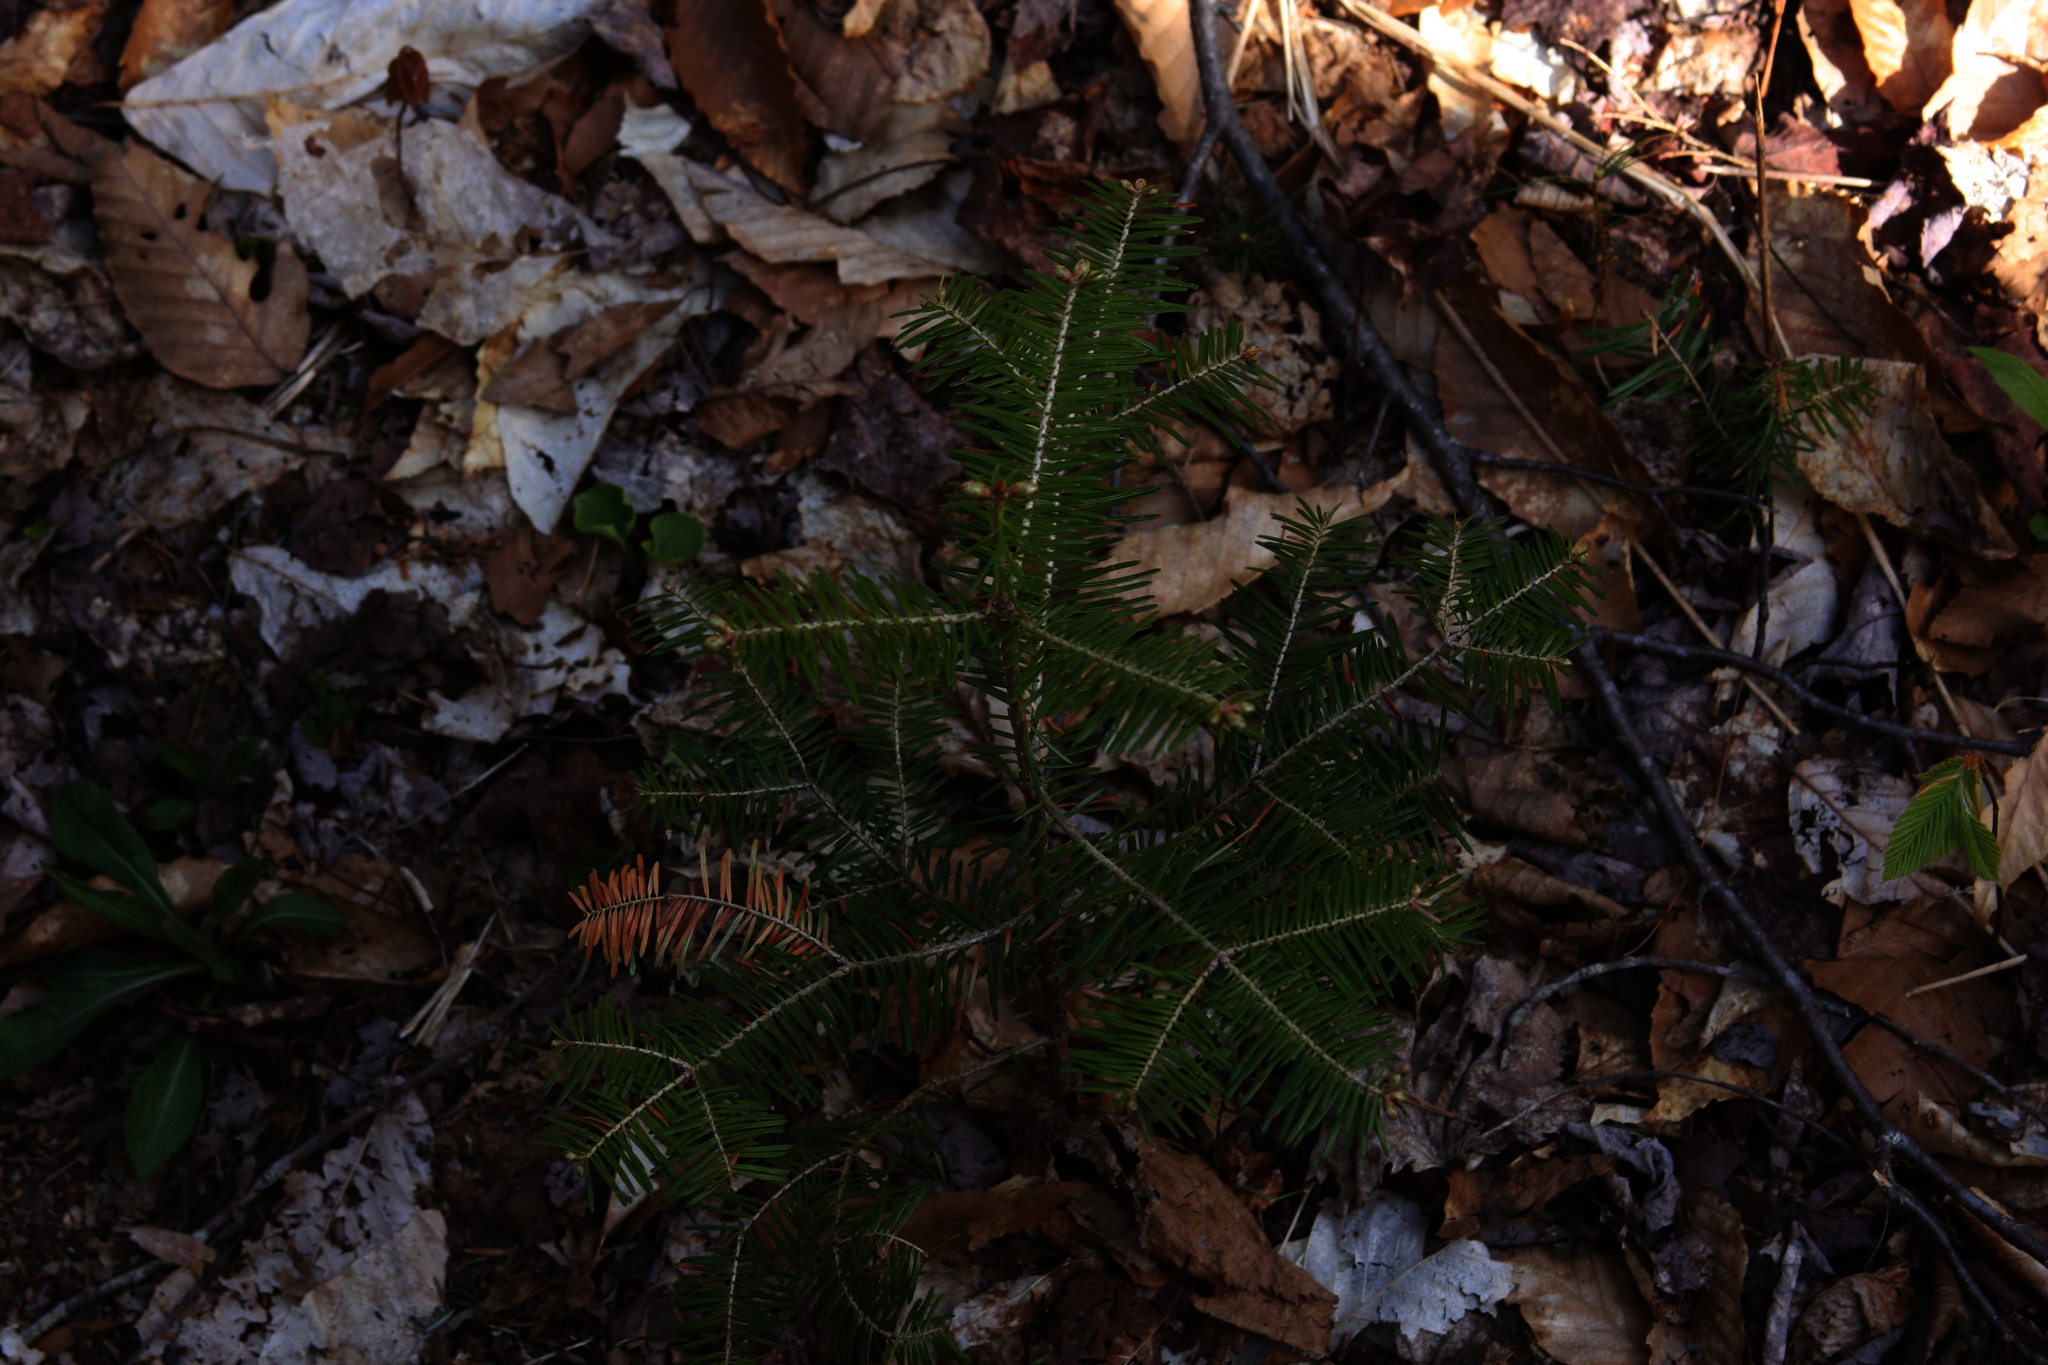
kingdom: Plantae
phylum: Tracheophyta
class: Pinopsida
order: Pinales
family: Pinaceae
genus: Abies
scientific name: Abies balsamea
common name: Balsam fir
